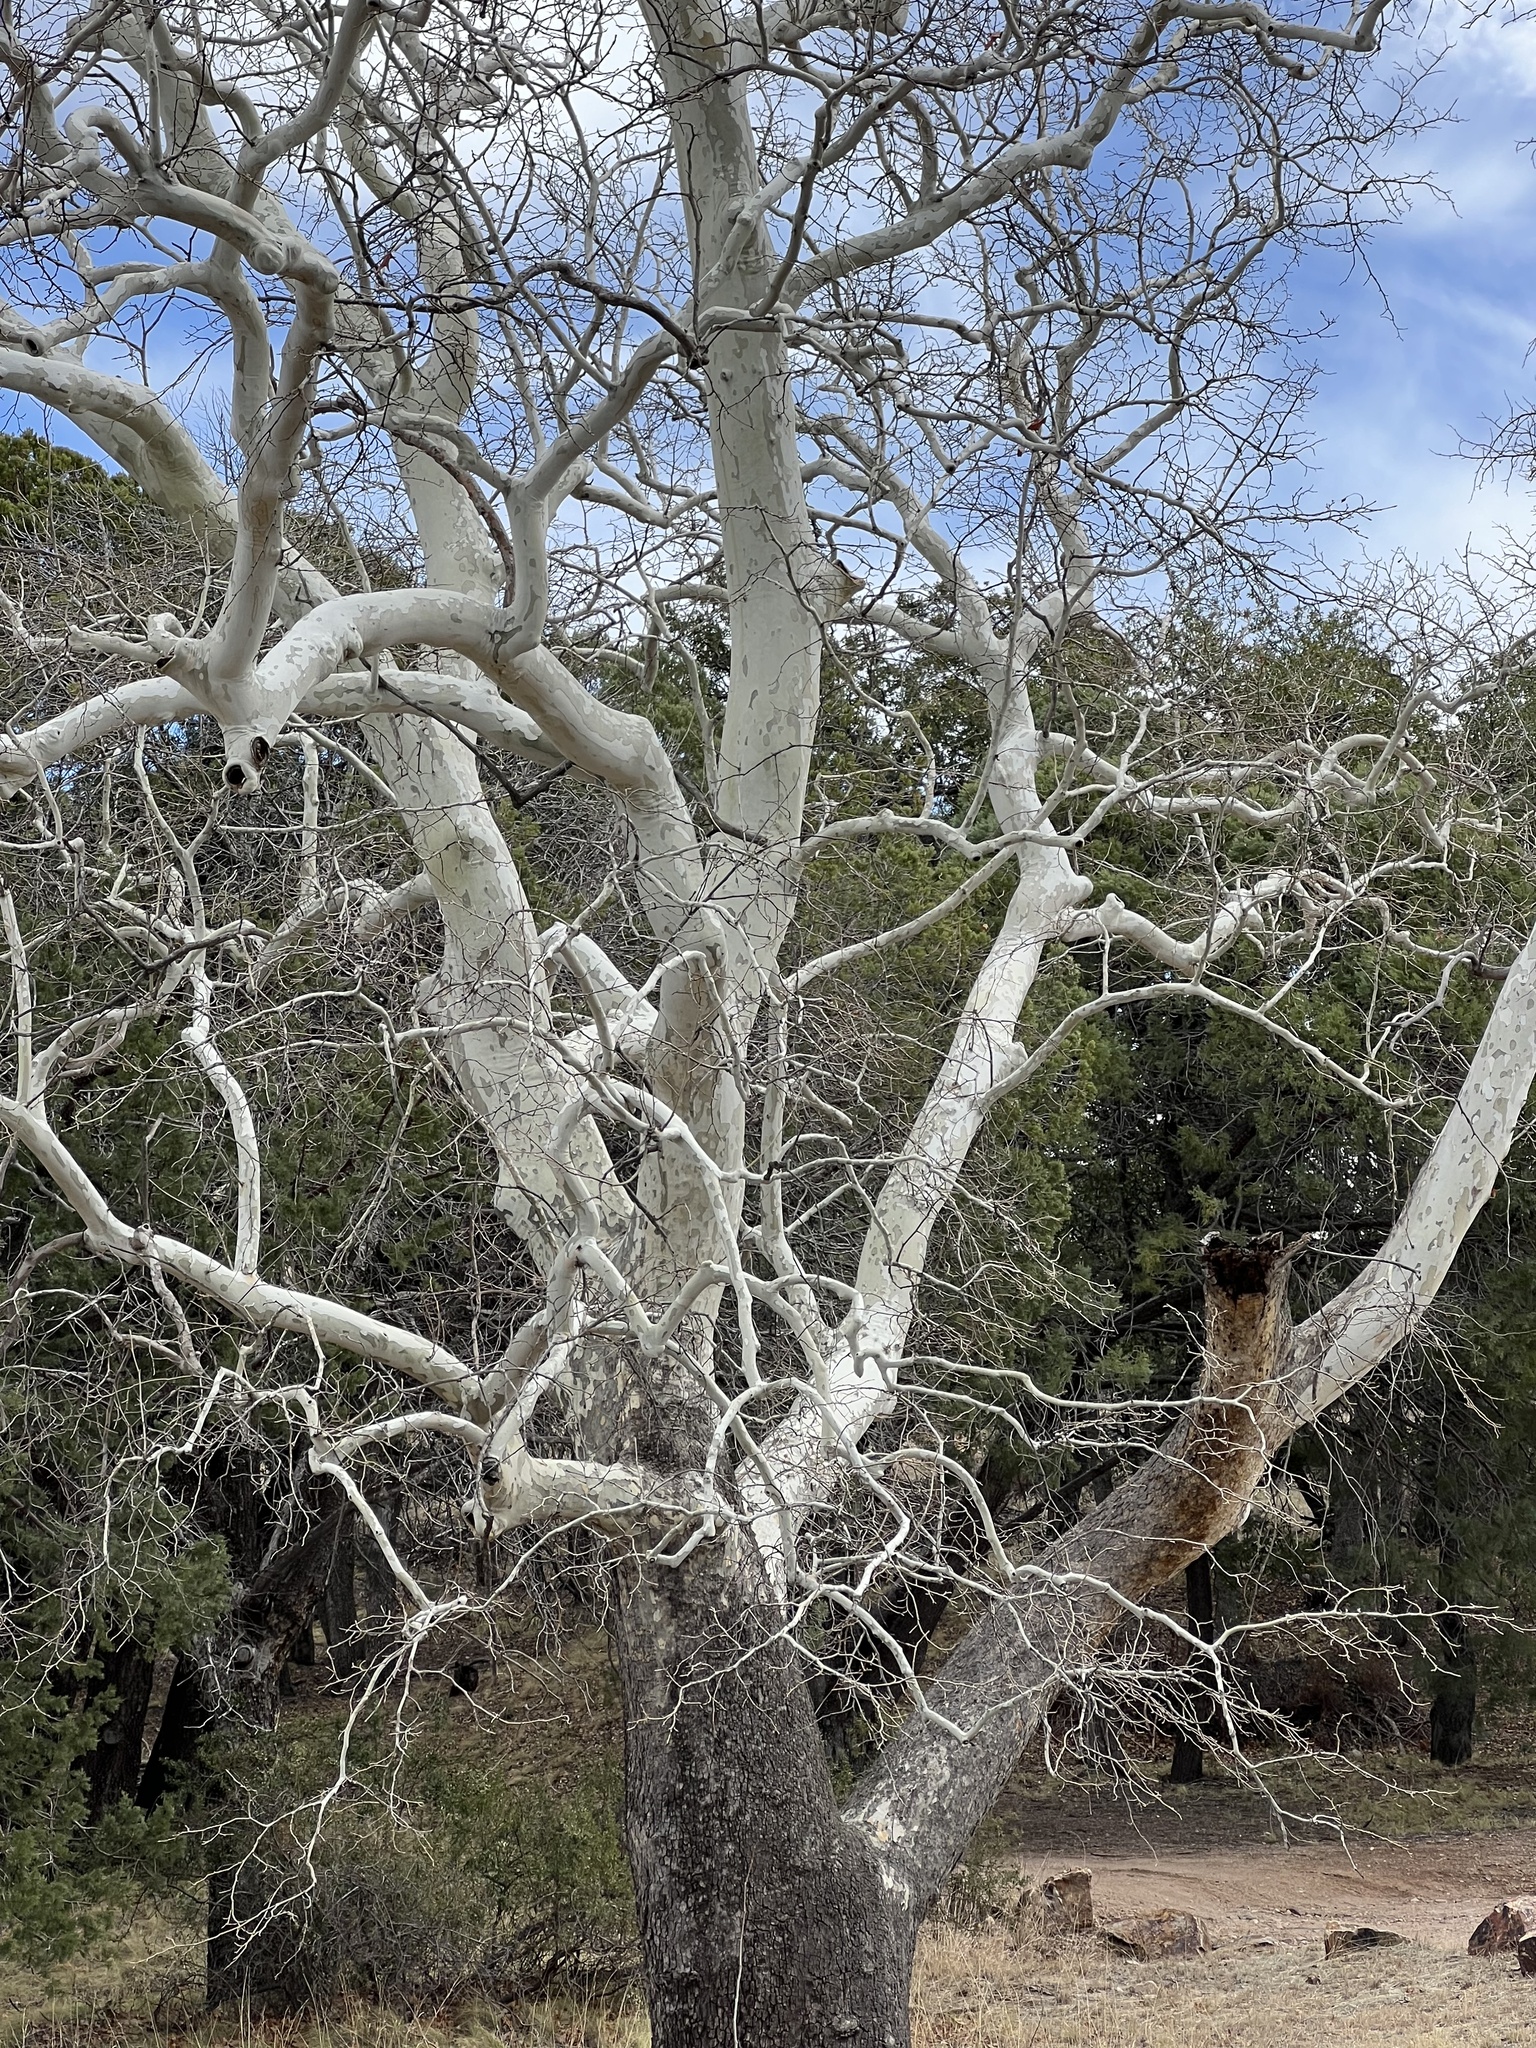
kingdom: Plantae
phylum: Tracheophyta
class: Magnoliopsida
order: Proteales
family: Platanaceae
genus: Platanus
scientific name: Platanus wrightii
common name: Arizona sycamore
